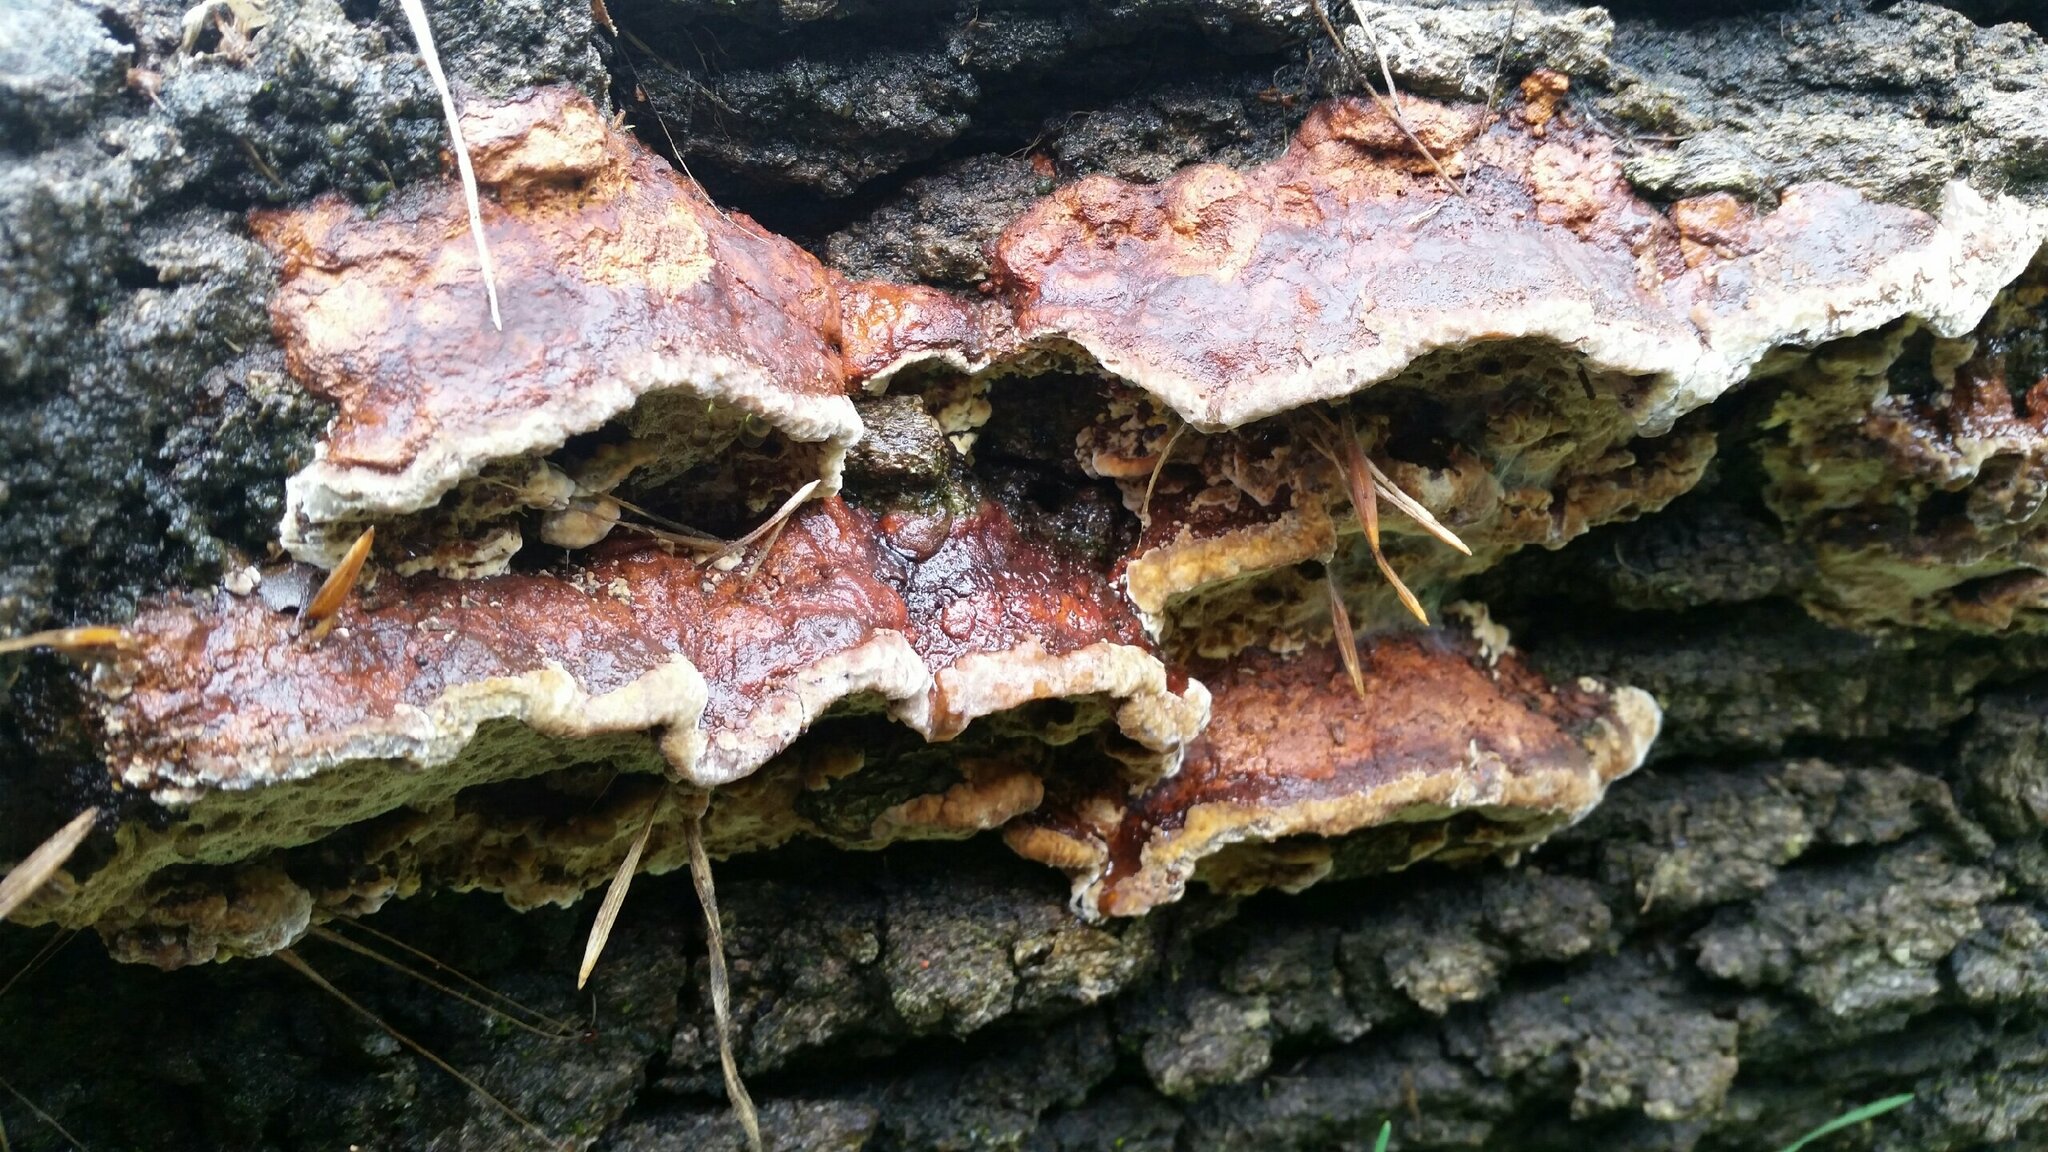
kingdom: Fungi
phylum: Basidiomycota
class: Agaricomycetes
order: Hymenochaetales
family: Hymenochaetaceae
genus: Phellinus
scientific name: Phellinus gilvus
